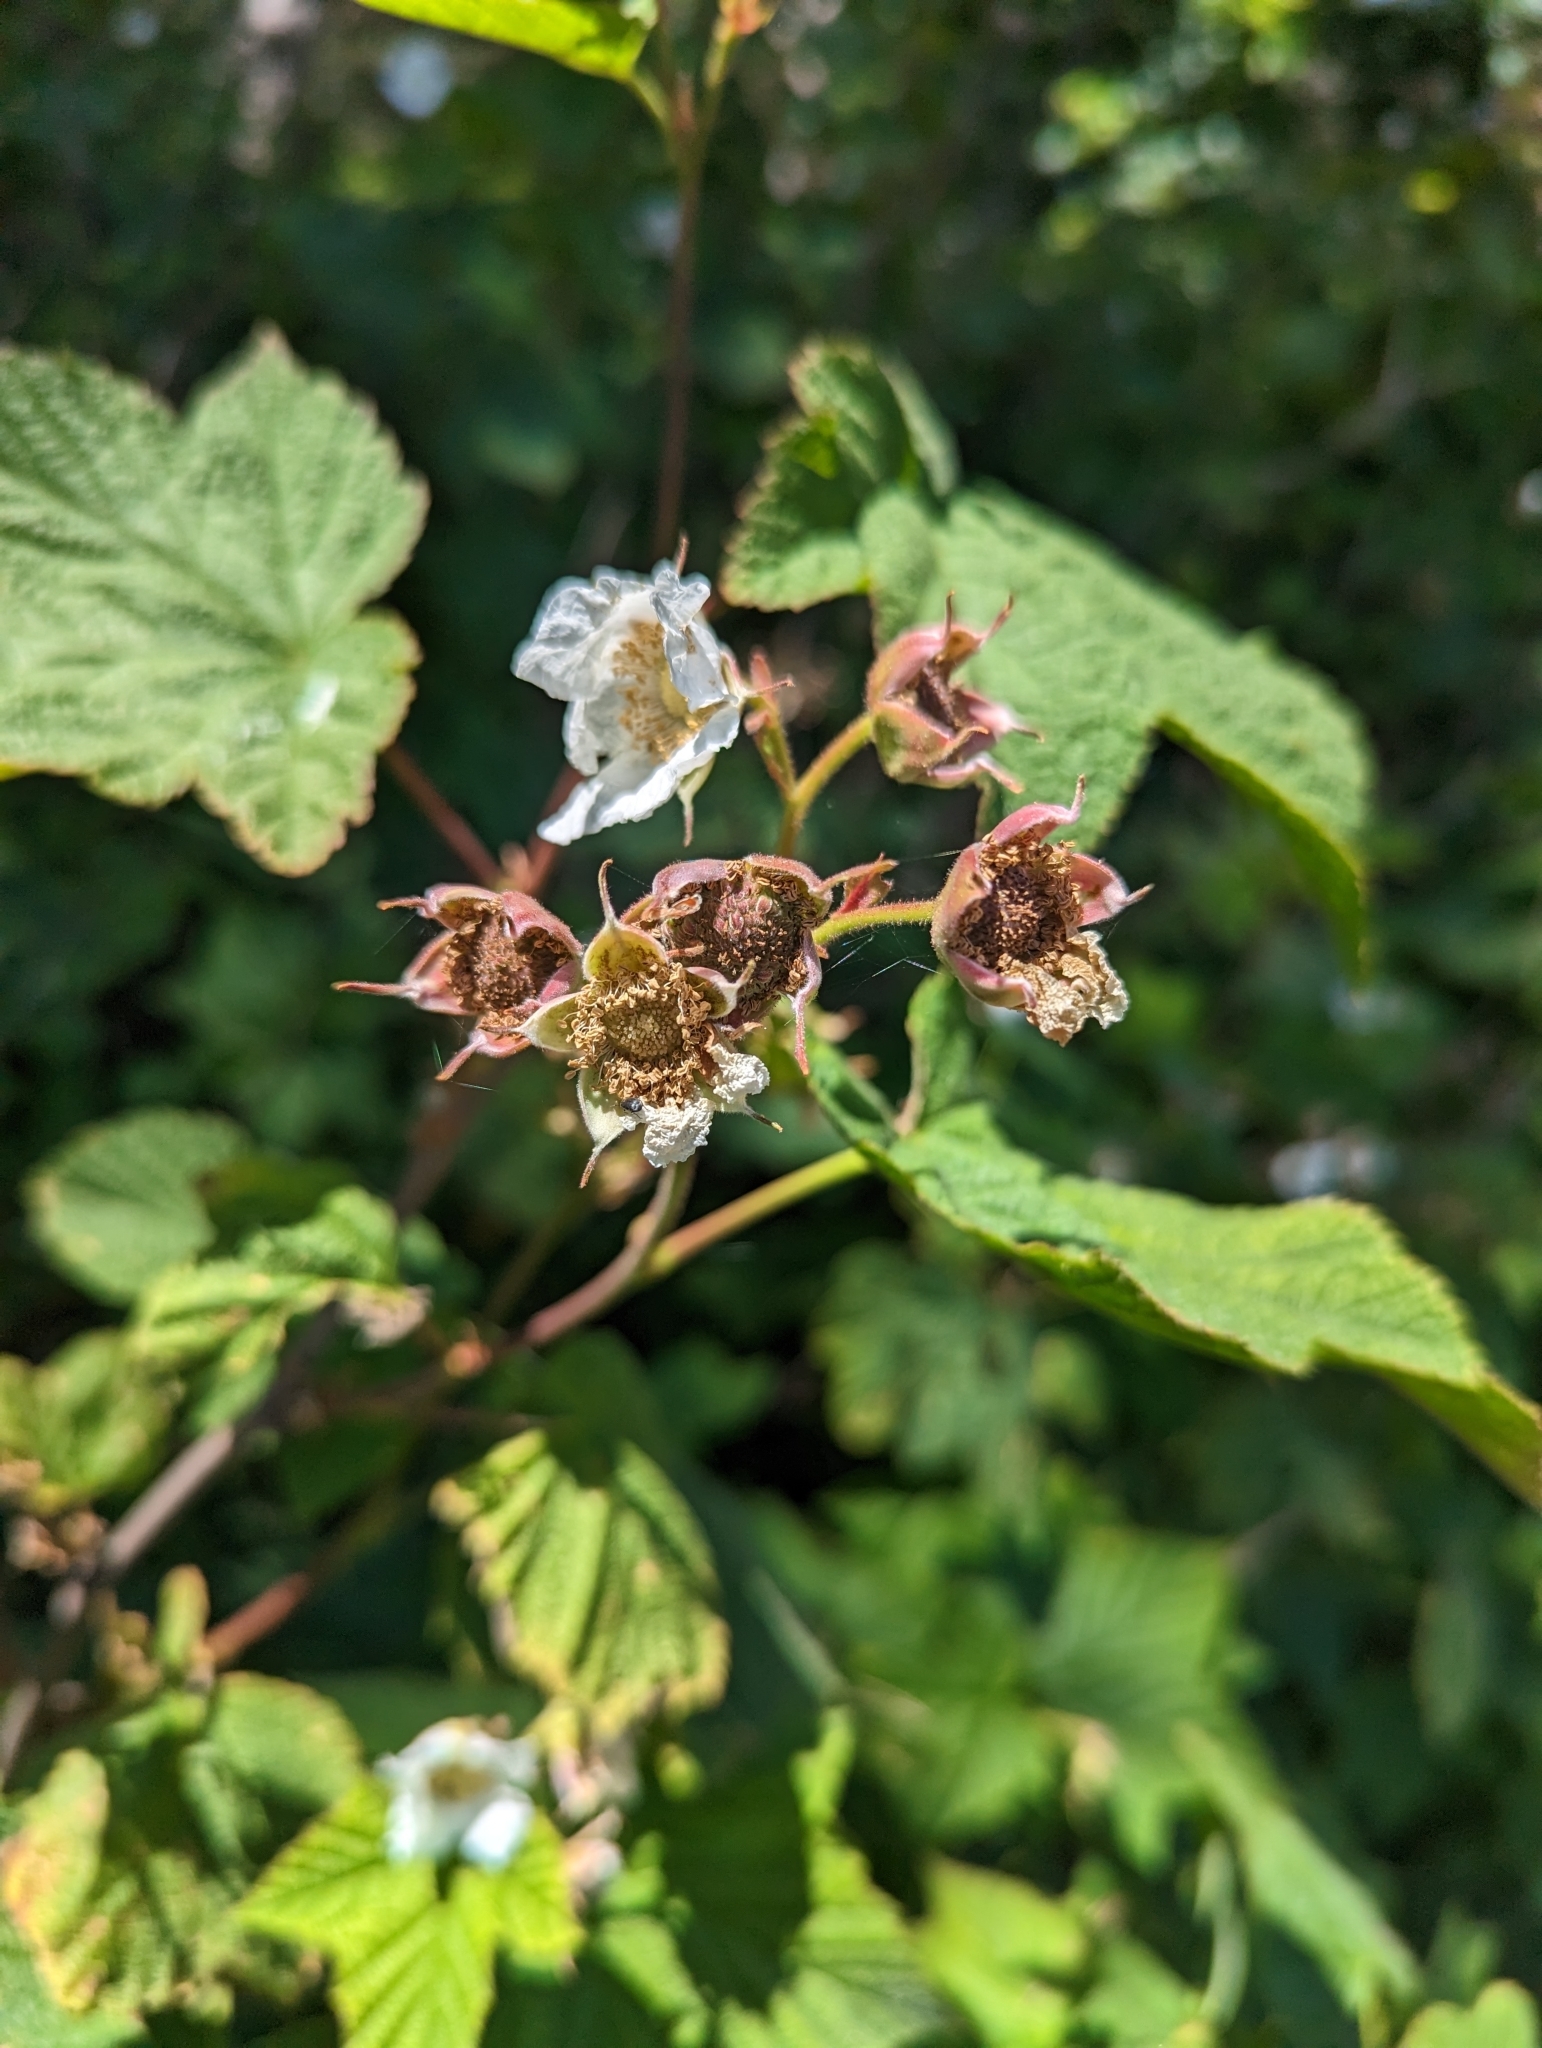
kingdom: Plantae
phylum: Tracheophyta
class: Magnoliopsida
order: Rosales
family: Rosaceae
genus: Rubus
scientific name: Rubus parviflorus
